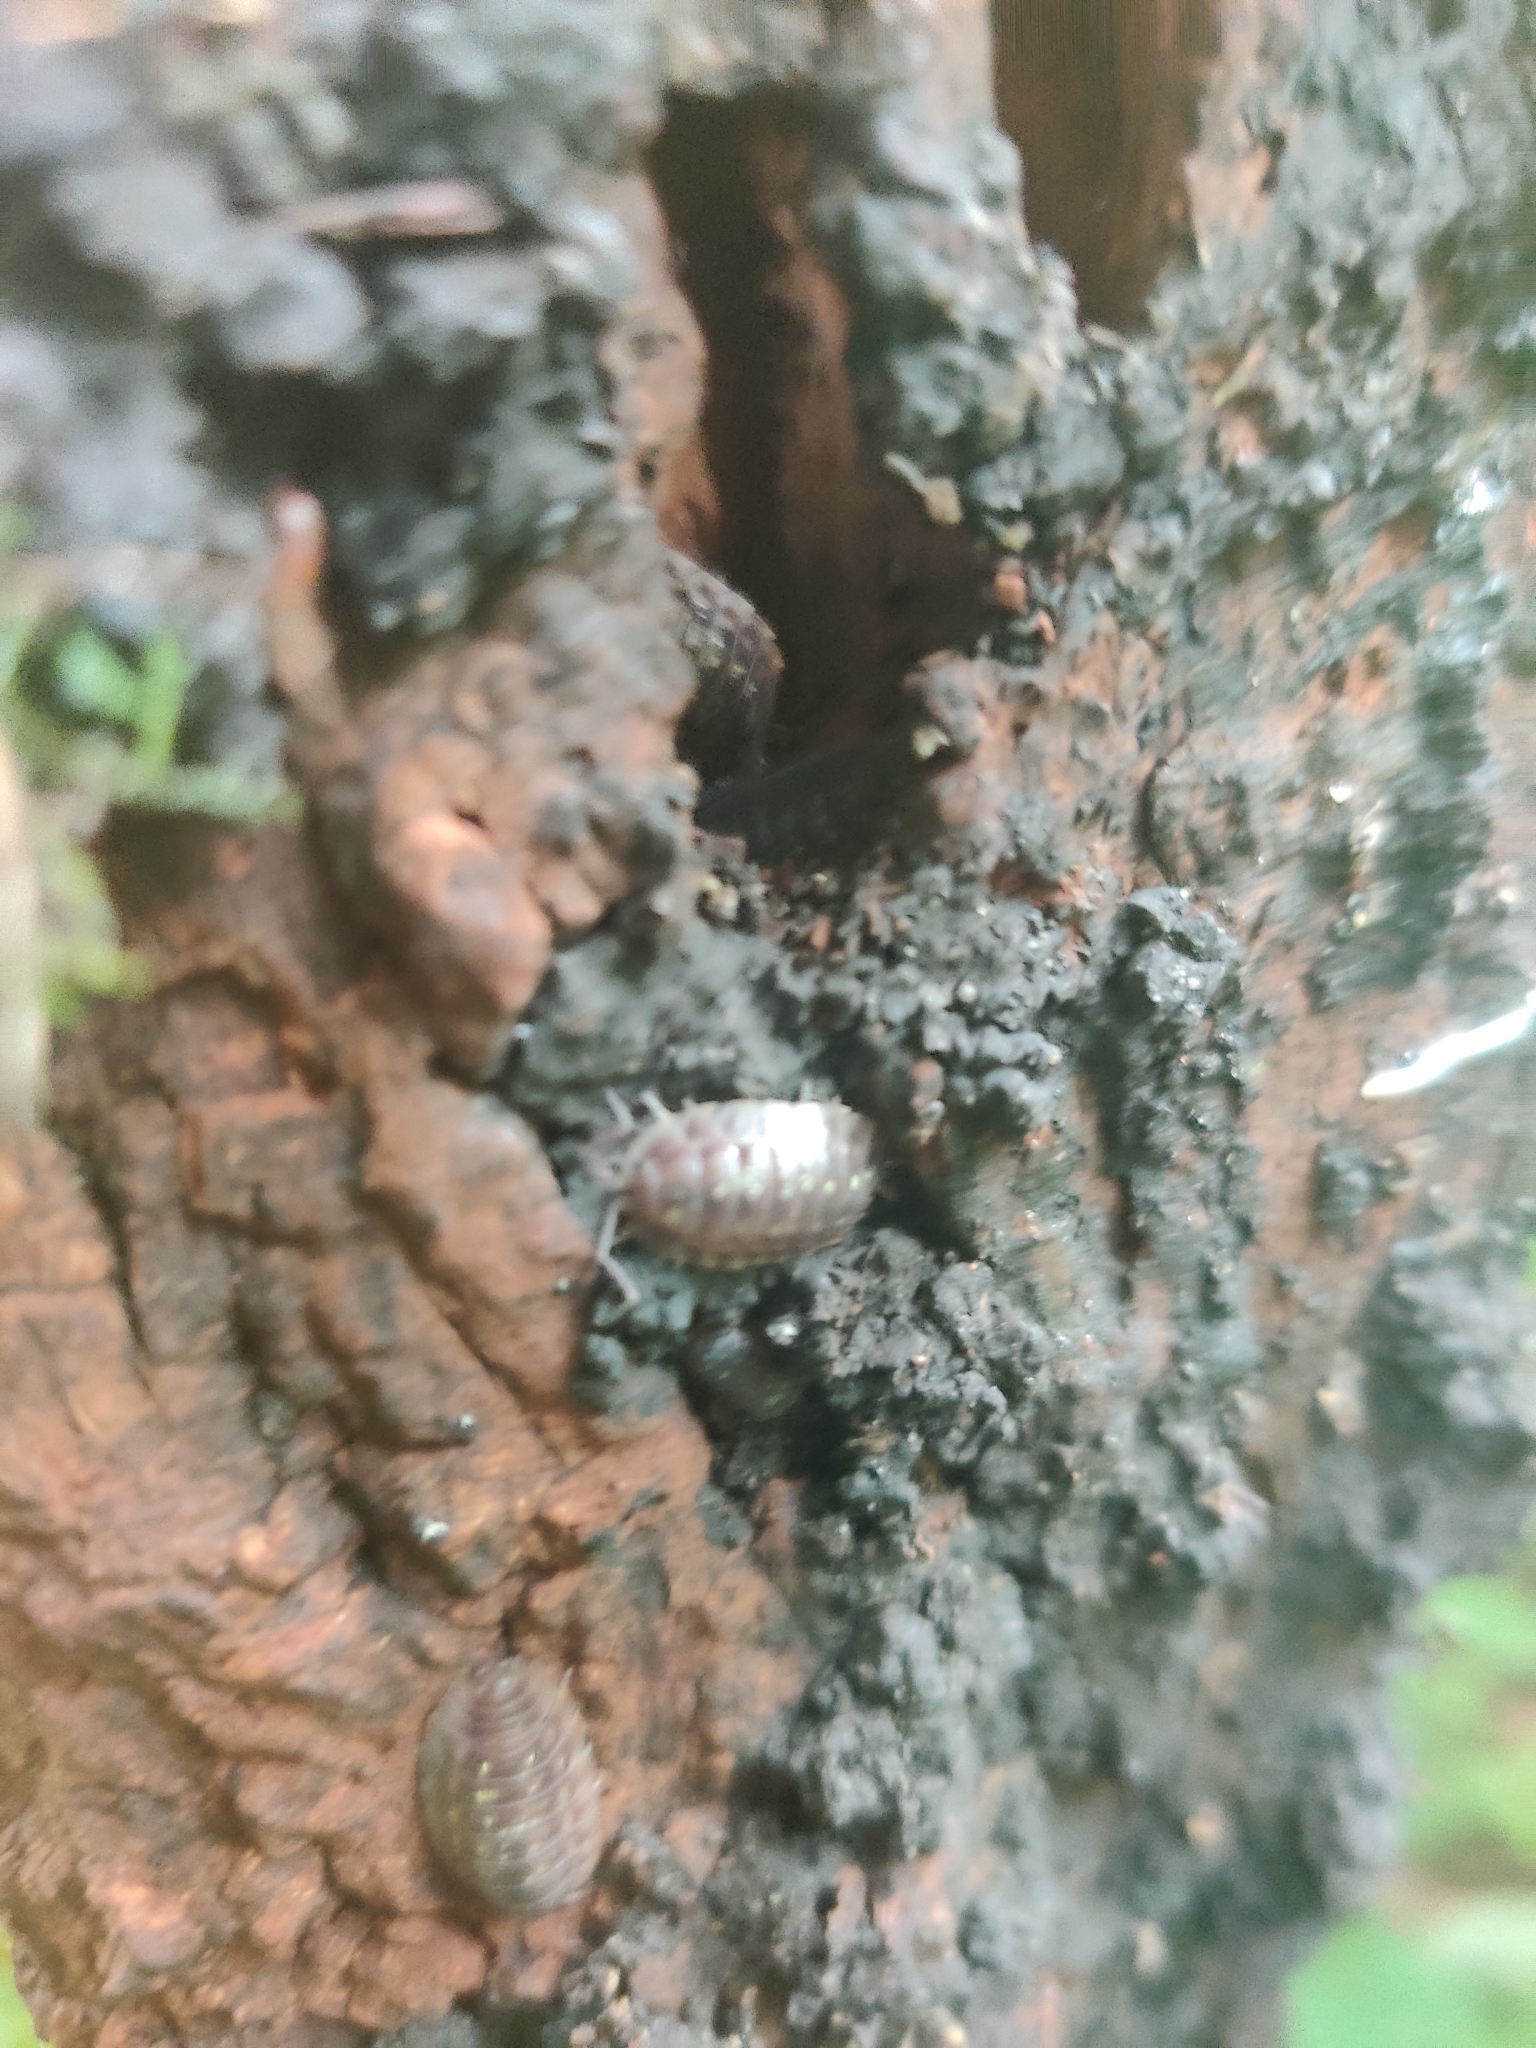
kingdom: Animalia
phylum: Arthropoda
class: Malacostraca
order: Isopoda
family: Oniscidae
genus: Oniscus
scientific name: Oniscus asellus
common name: Common shiny woodlouse
